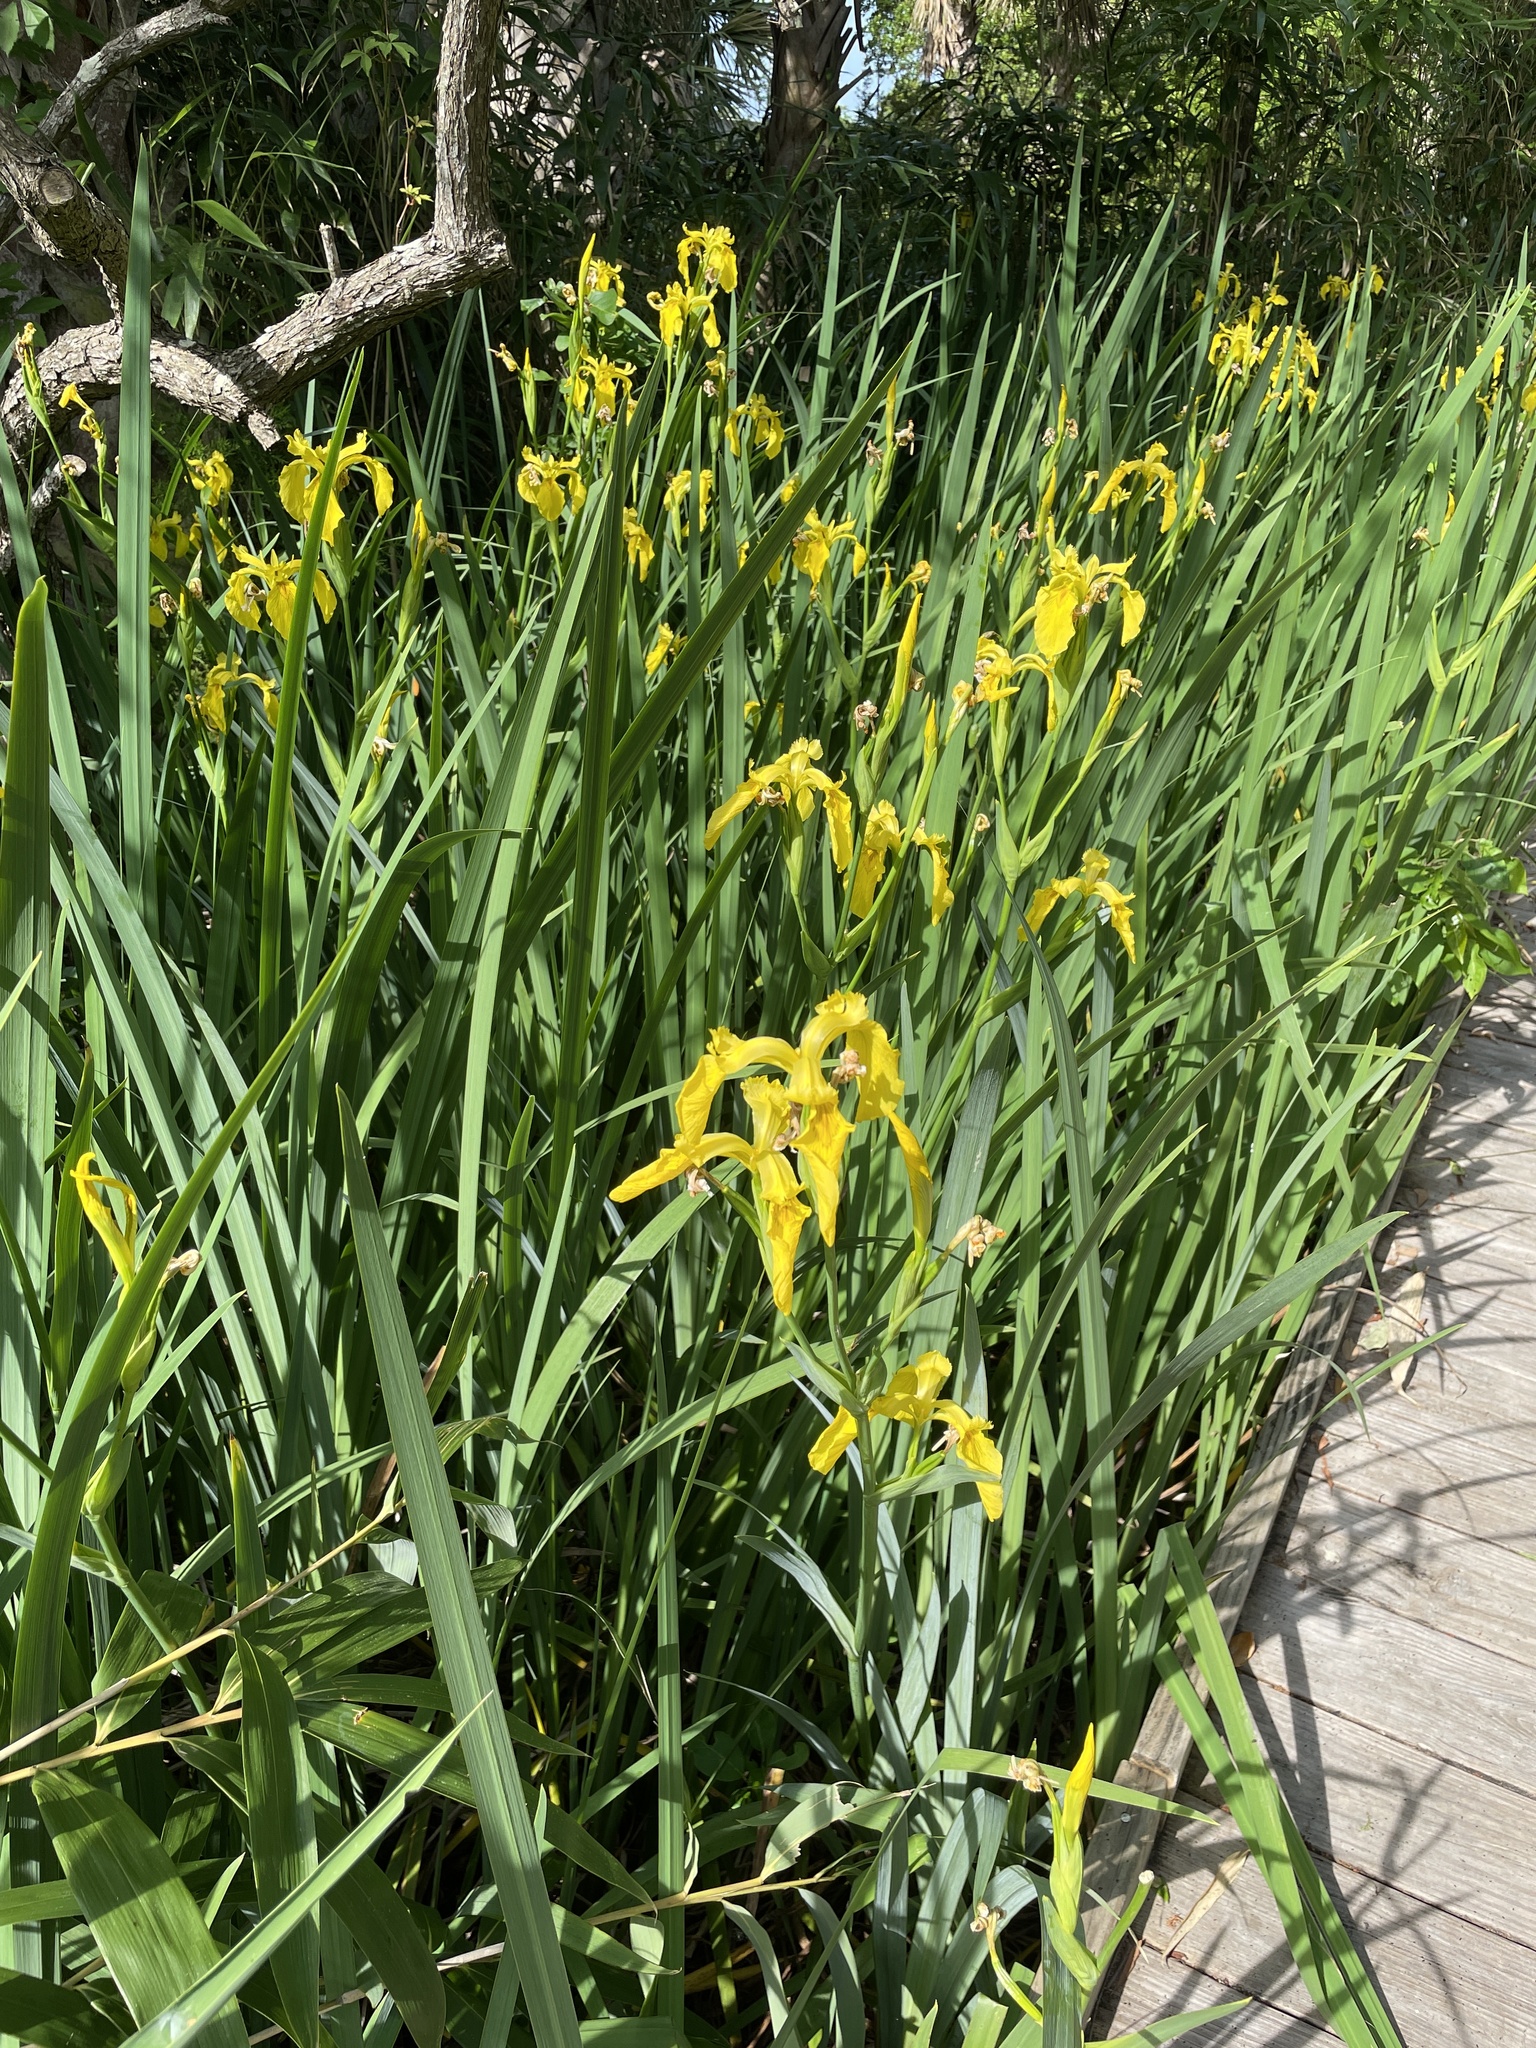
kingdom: Plantae
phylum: Tracheophyta
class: Liliopsida
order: Asparagales
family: Iridaceae
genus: Iris
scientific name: Iris pseudacorus
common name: Yellow flag
